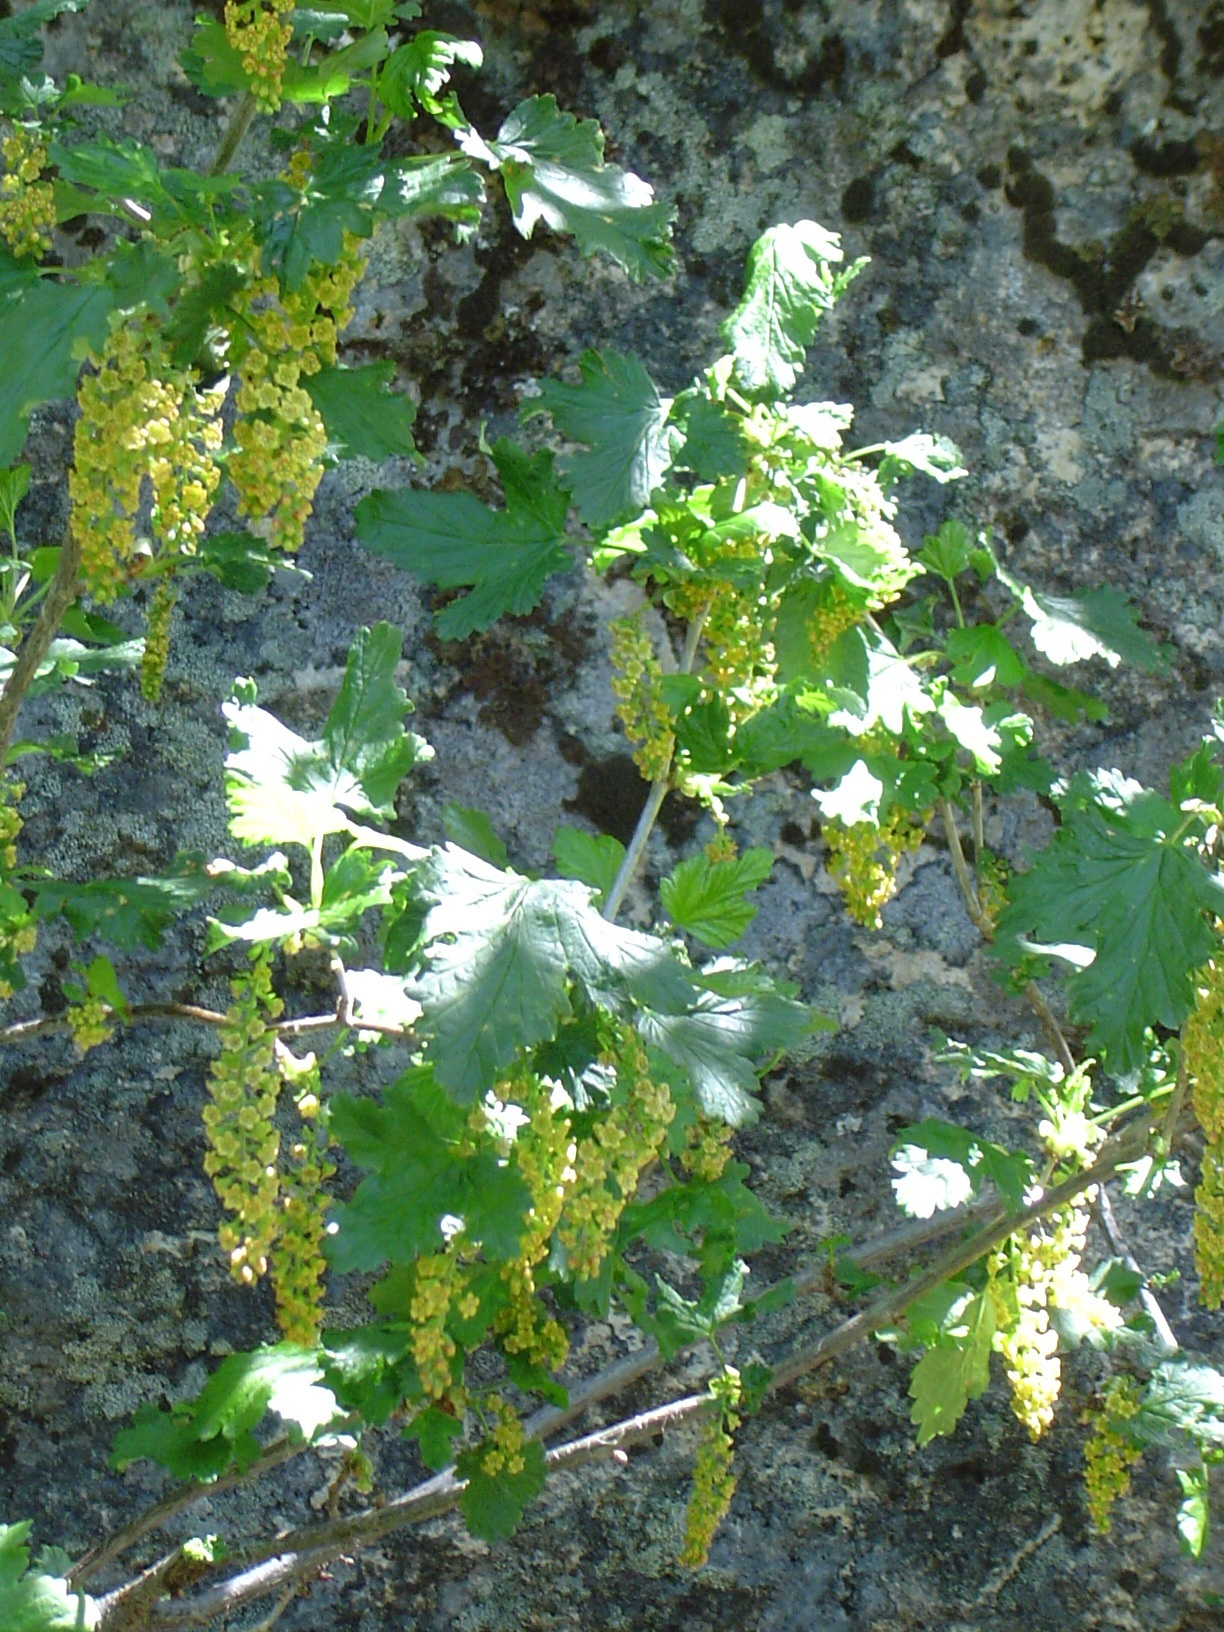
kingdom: Plantae
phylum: Tracheophyta
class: Magnoliopsida
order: Saxifragales
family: Grossulariaceae
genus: Ribes
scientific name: Ribes magellanicum
